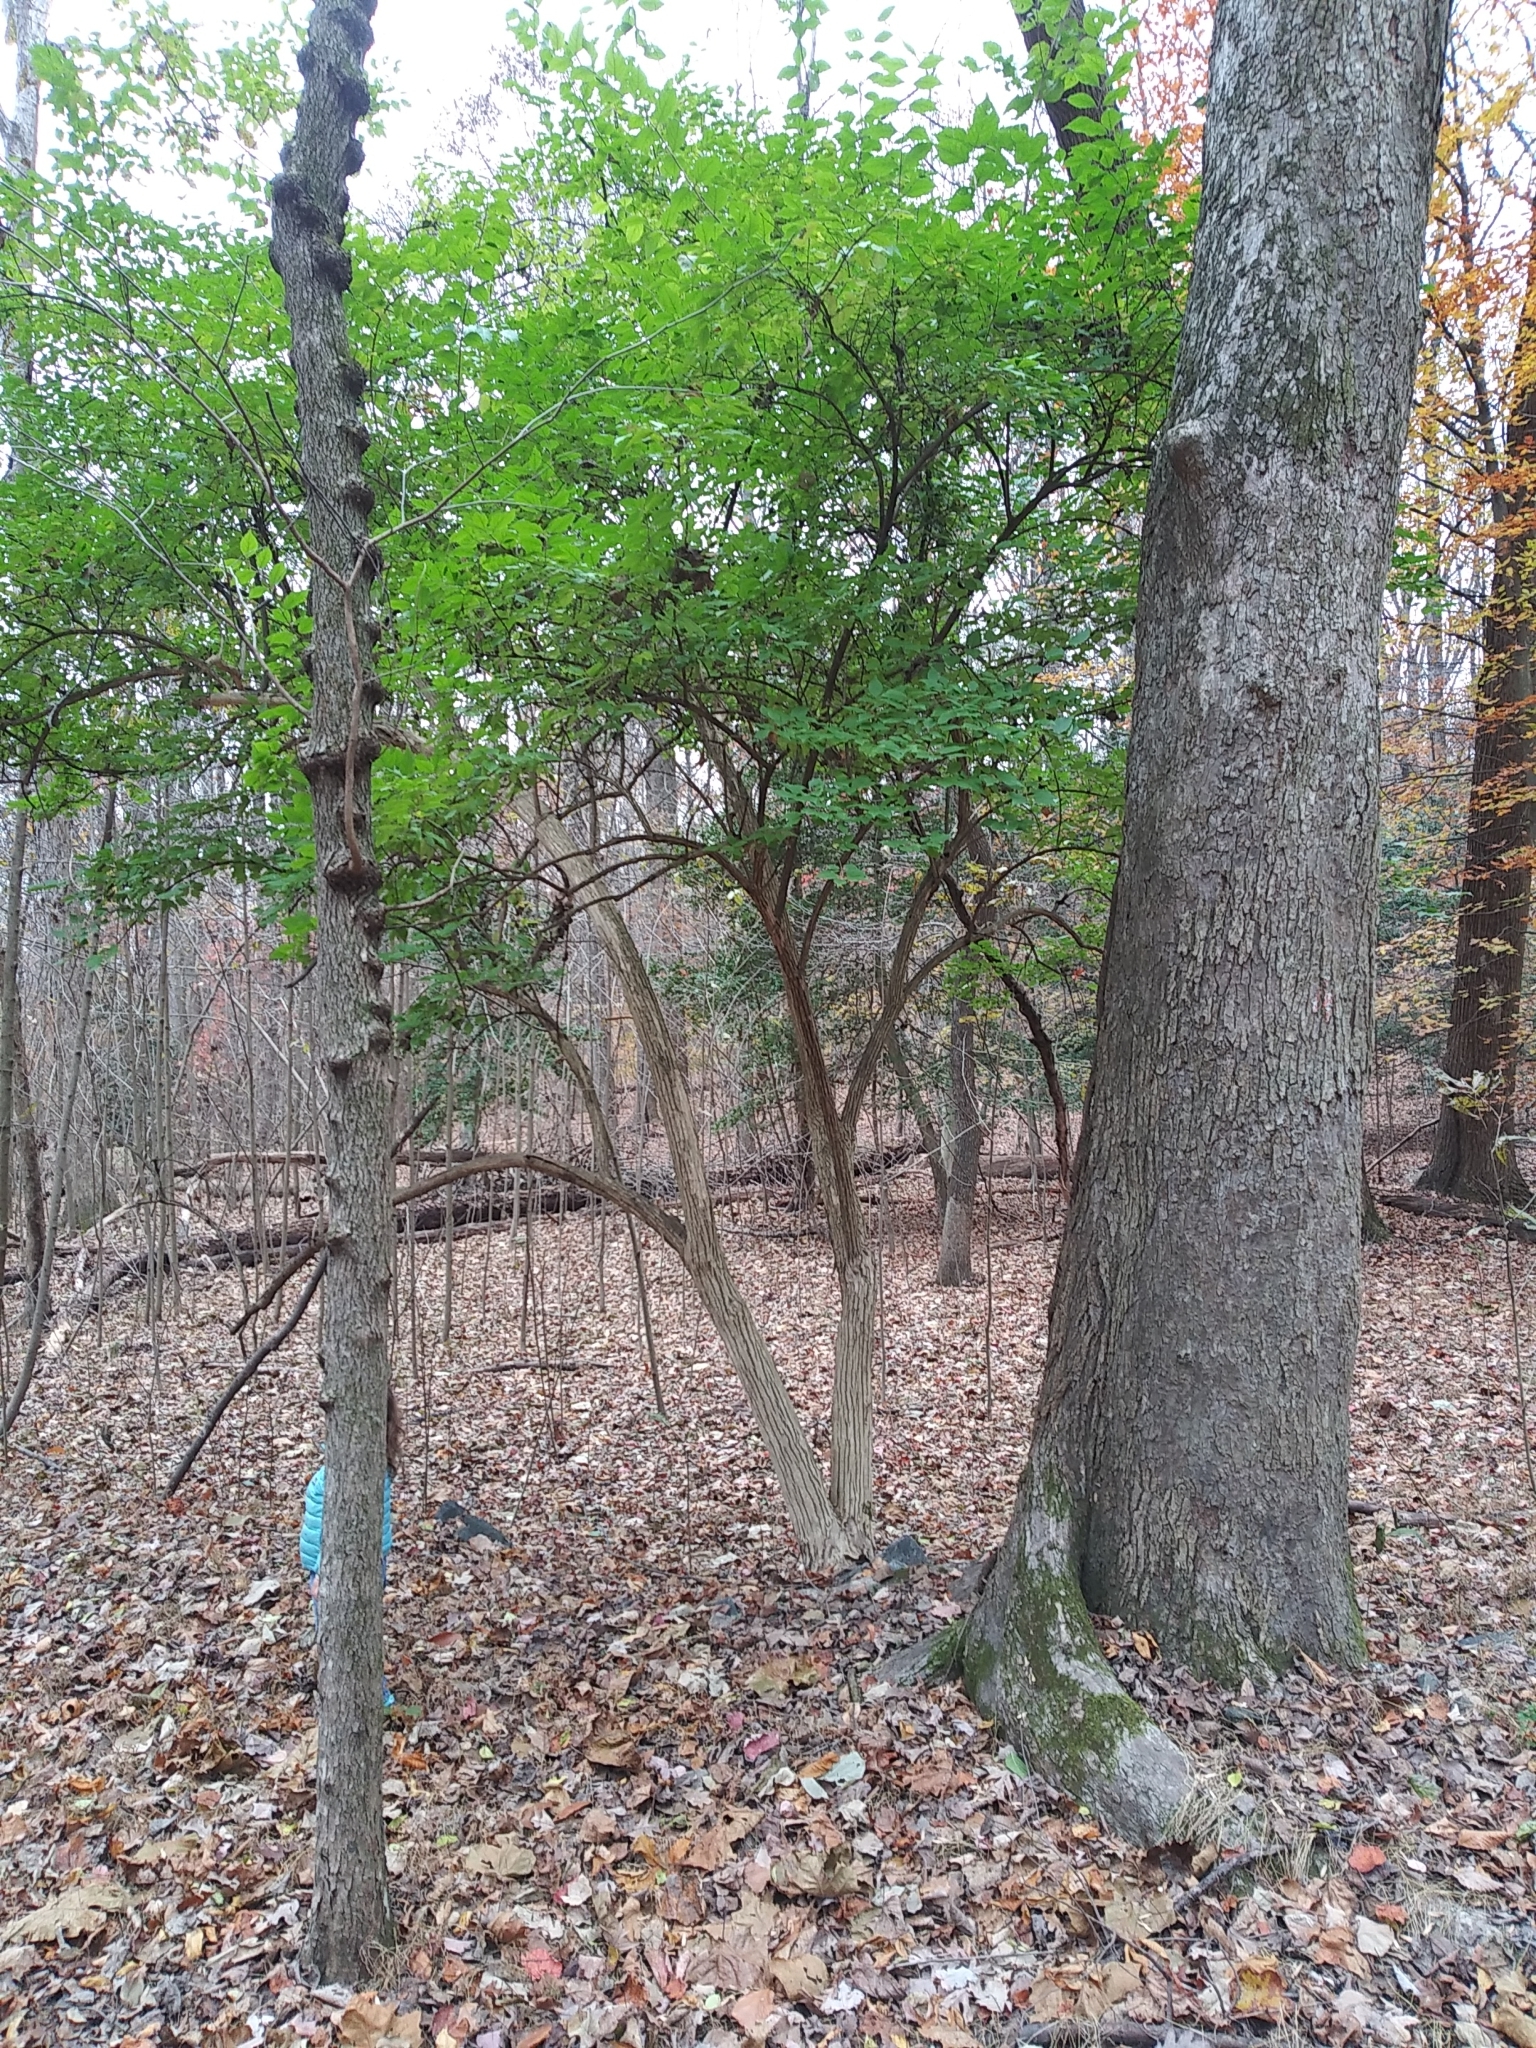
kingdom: Plantae
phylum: Tracheophyta
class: Magnoliopsida
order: Dipsacales
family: Caprifoliaceae
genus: Lonicera
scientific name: Lonicera maackii
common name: Amur honeysuckle
